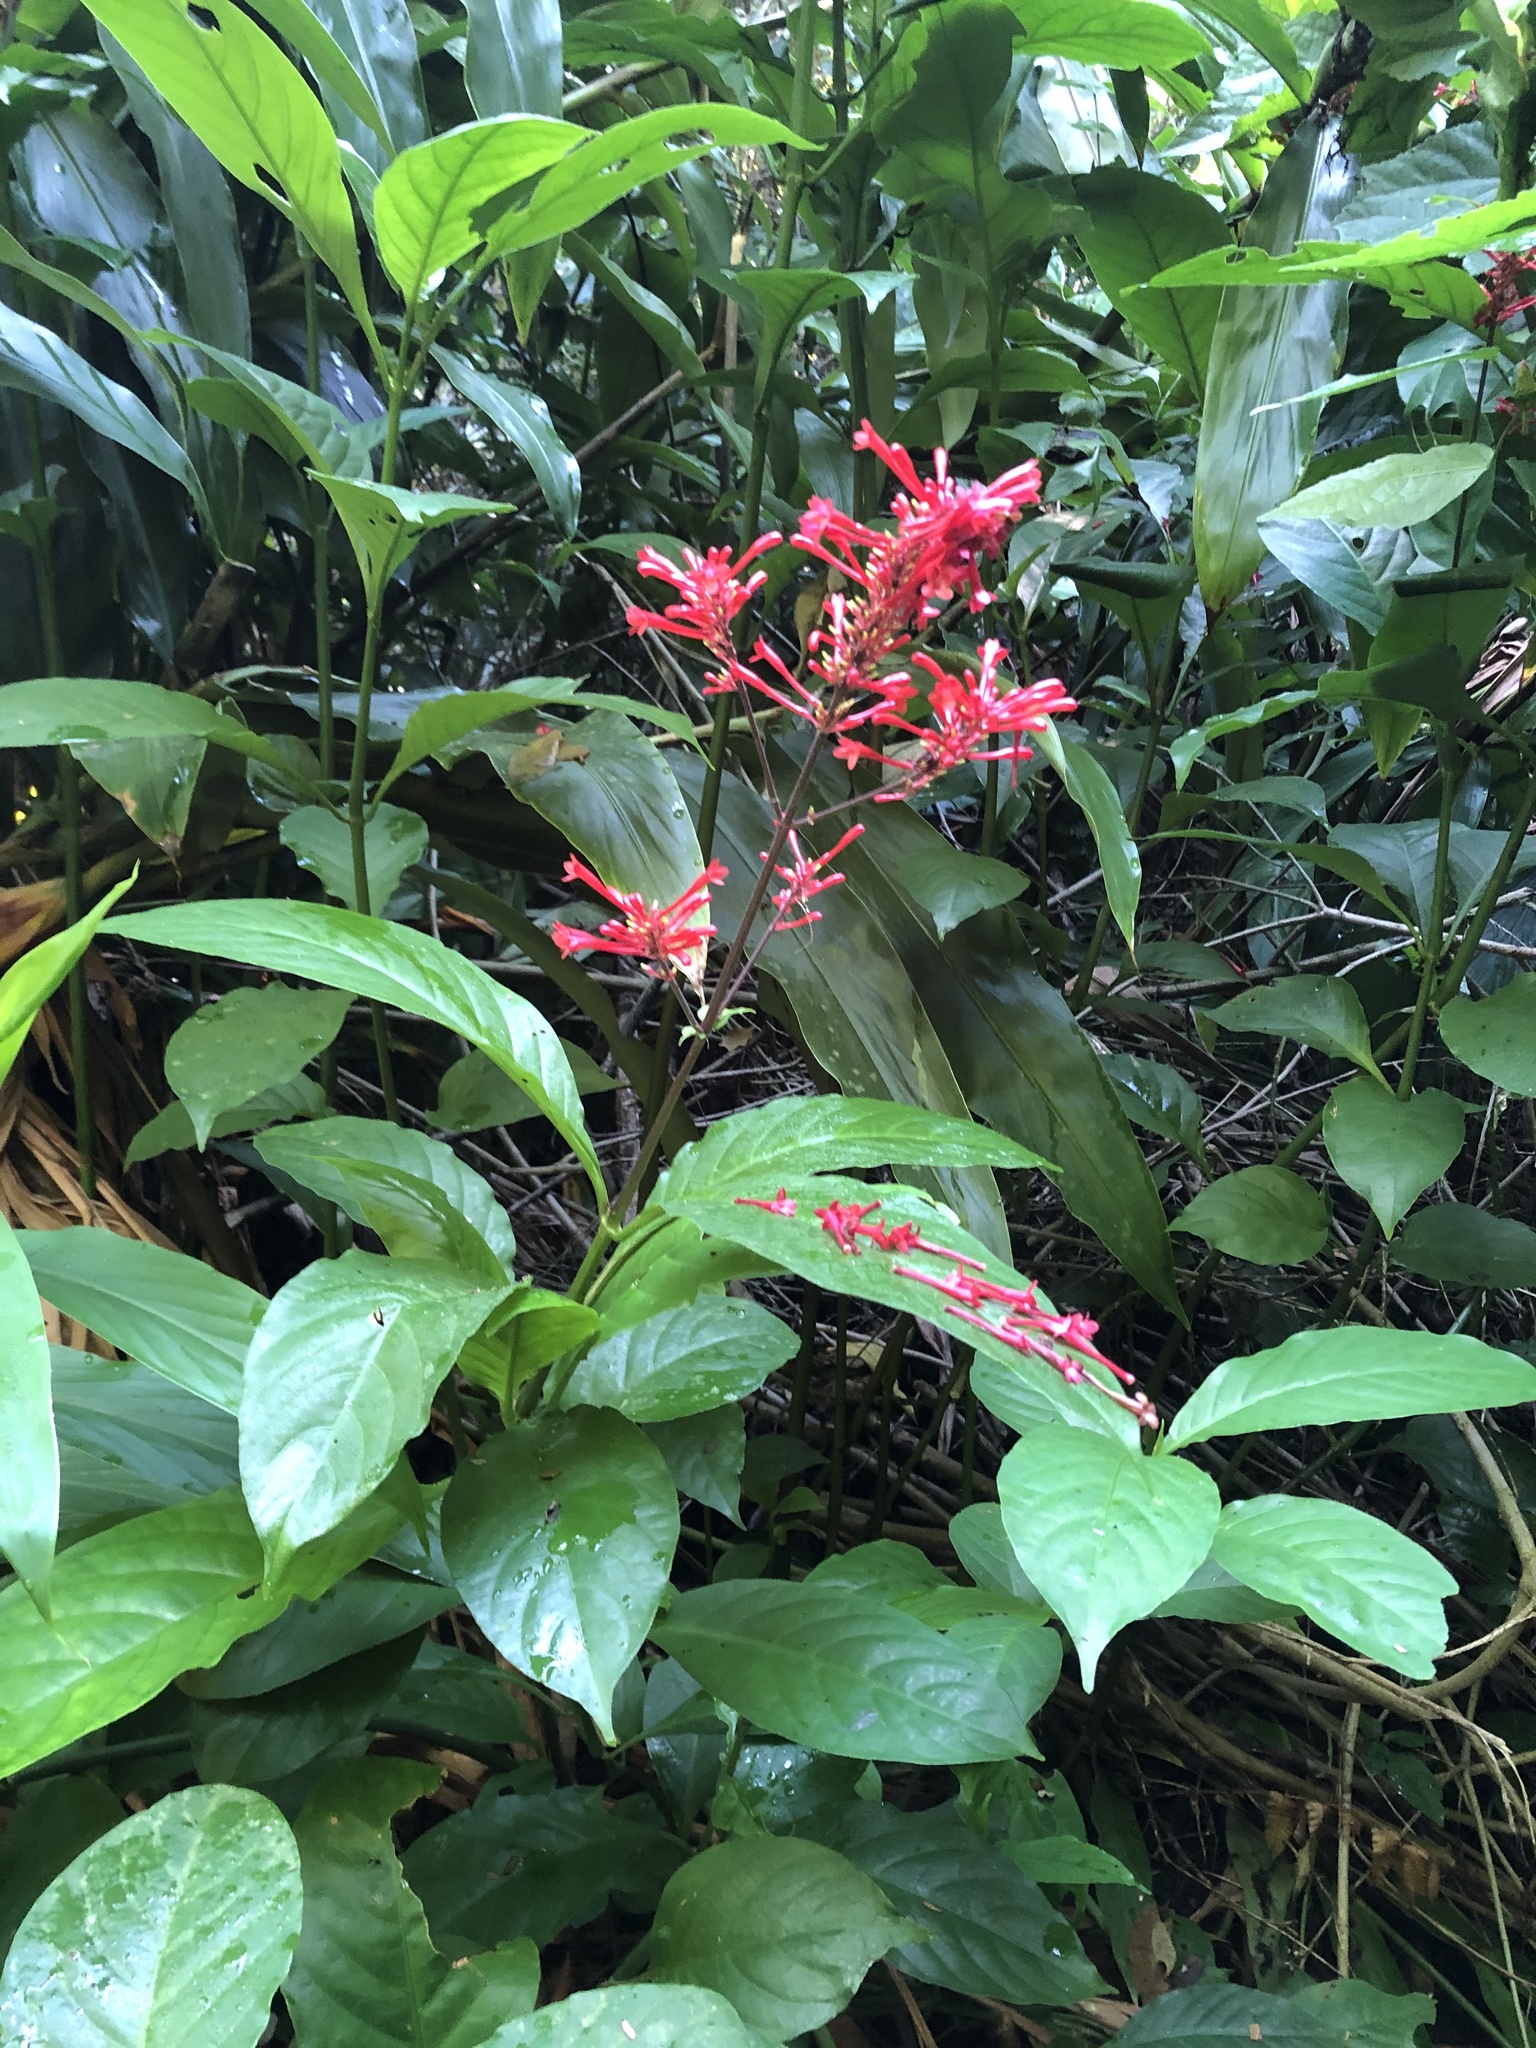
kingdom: Plantae
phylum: Tracheophyta
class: Magnoliopsida
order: Lamiales
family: Acanthaceae
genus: Odontonema
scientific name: Odontonema tubaeforme
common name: Firespike
